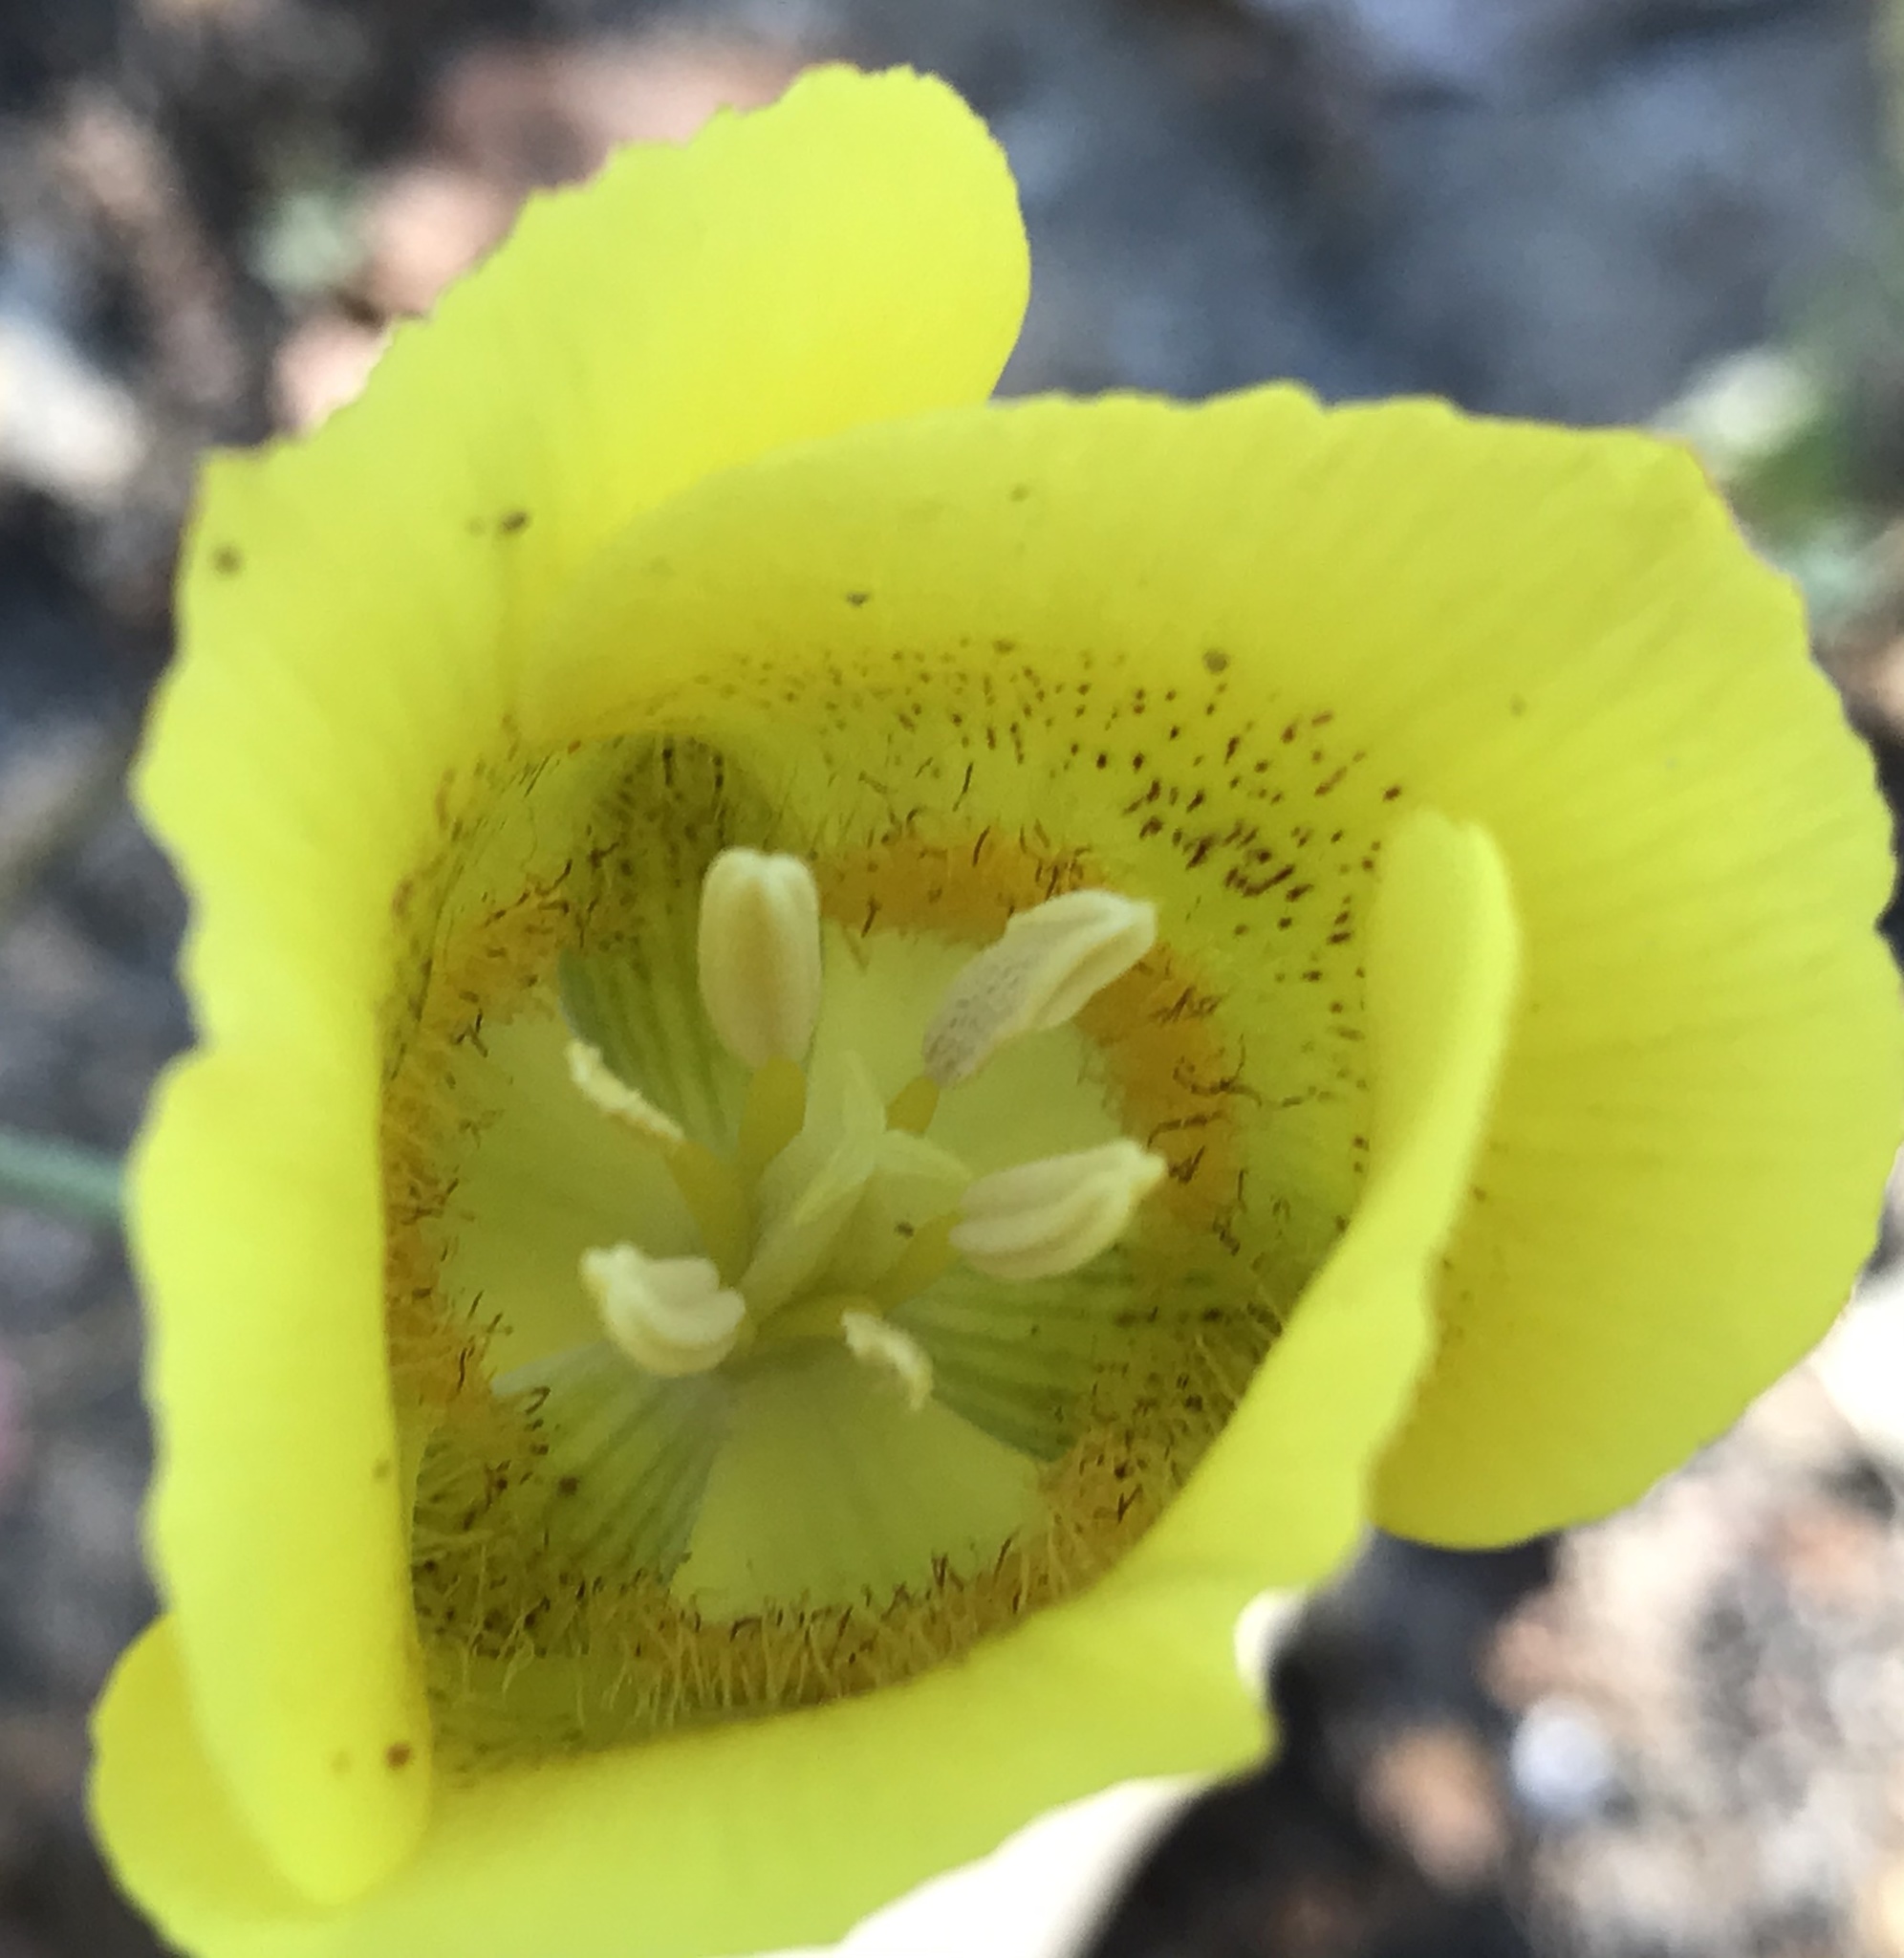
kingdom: Plantae
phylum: Tracheophyta
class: Liliopsida
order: Liliales
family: Liliaceae
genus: Calochortus
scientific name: Calochortus luteus
